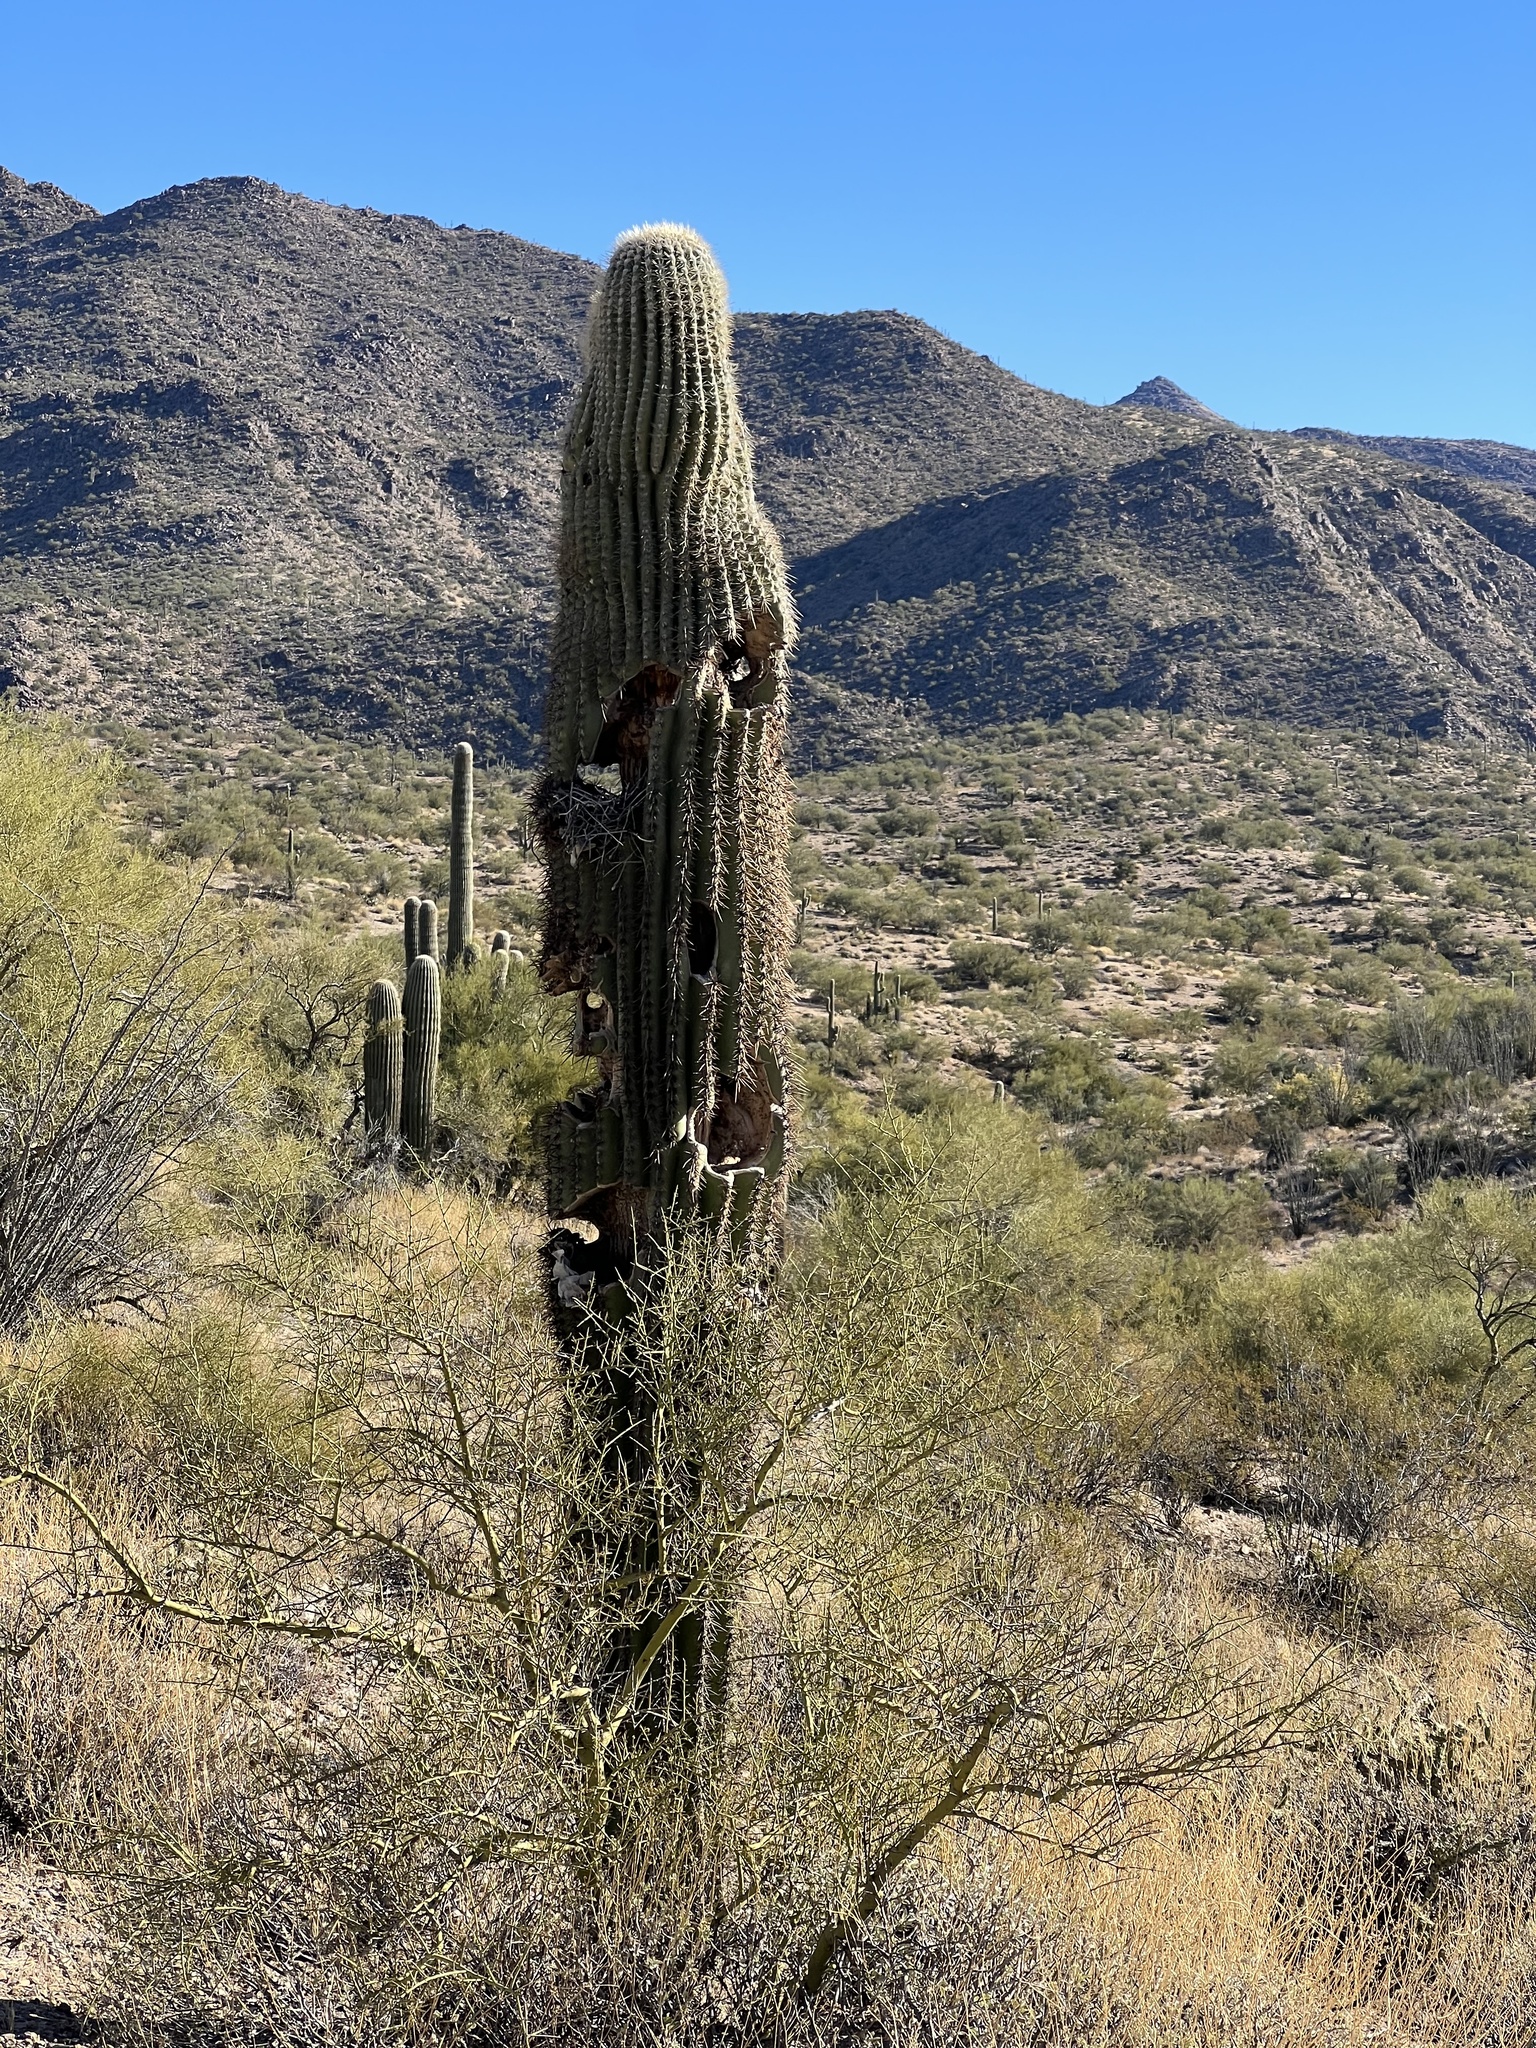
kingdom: Plantae
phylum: Tracheophyta
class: Magnoliopsida
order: Caryophyllales
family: Cactaceae
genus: Carnegiea
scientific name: Carnegiea gigantea
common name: Saguaro
